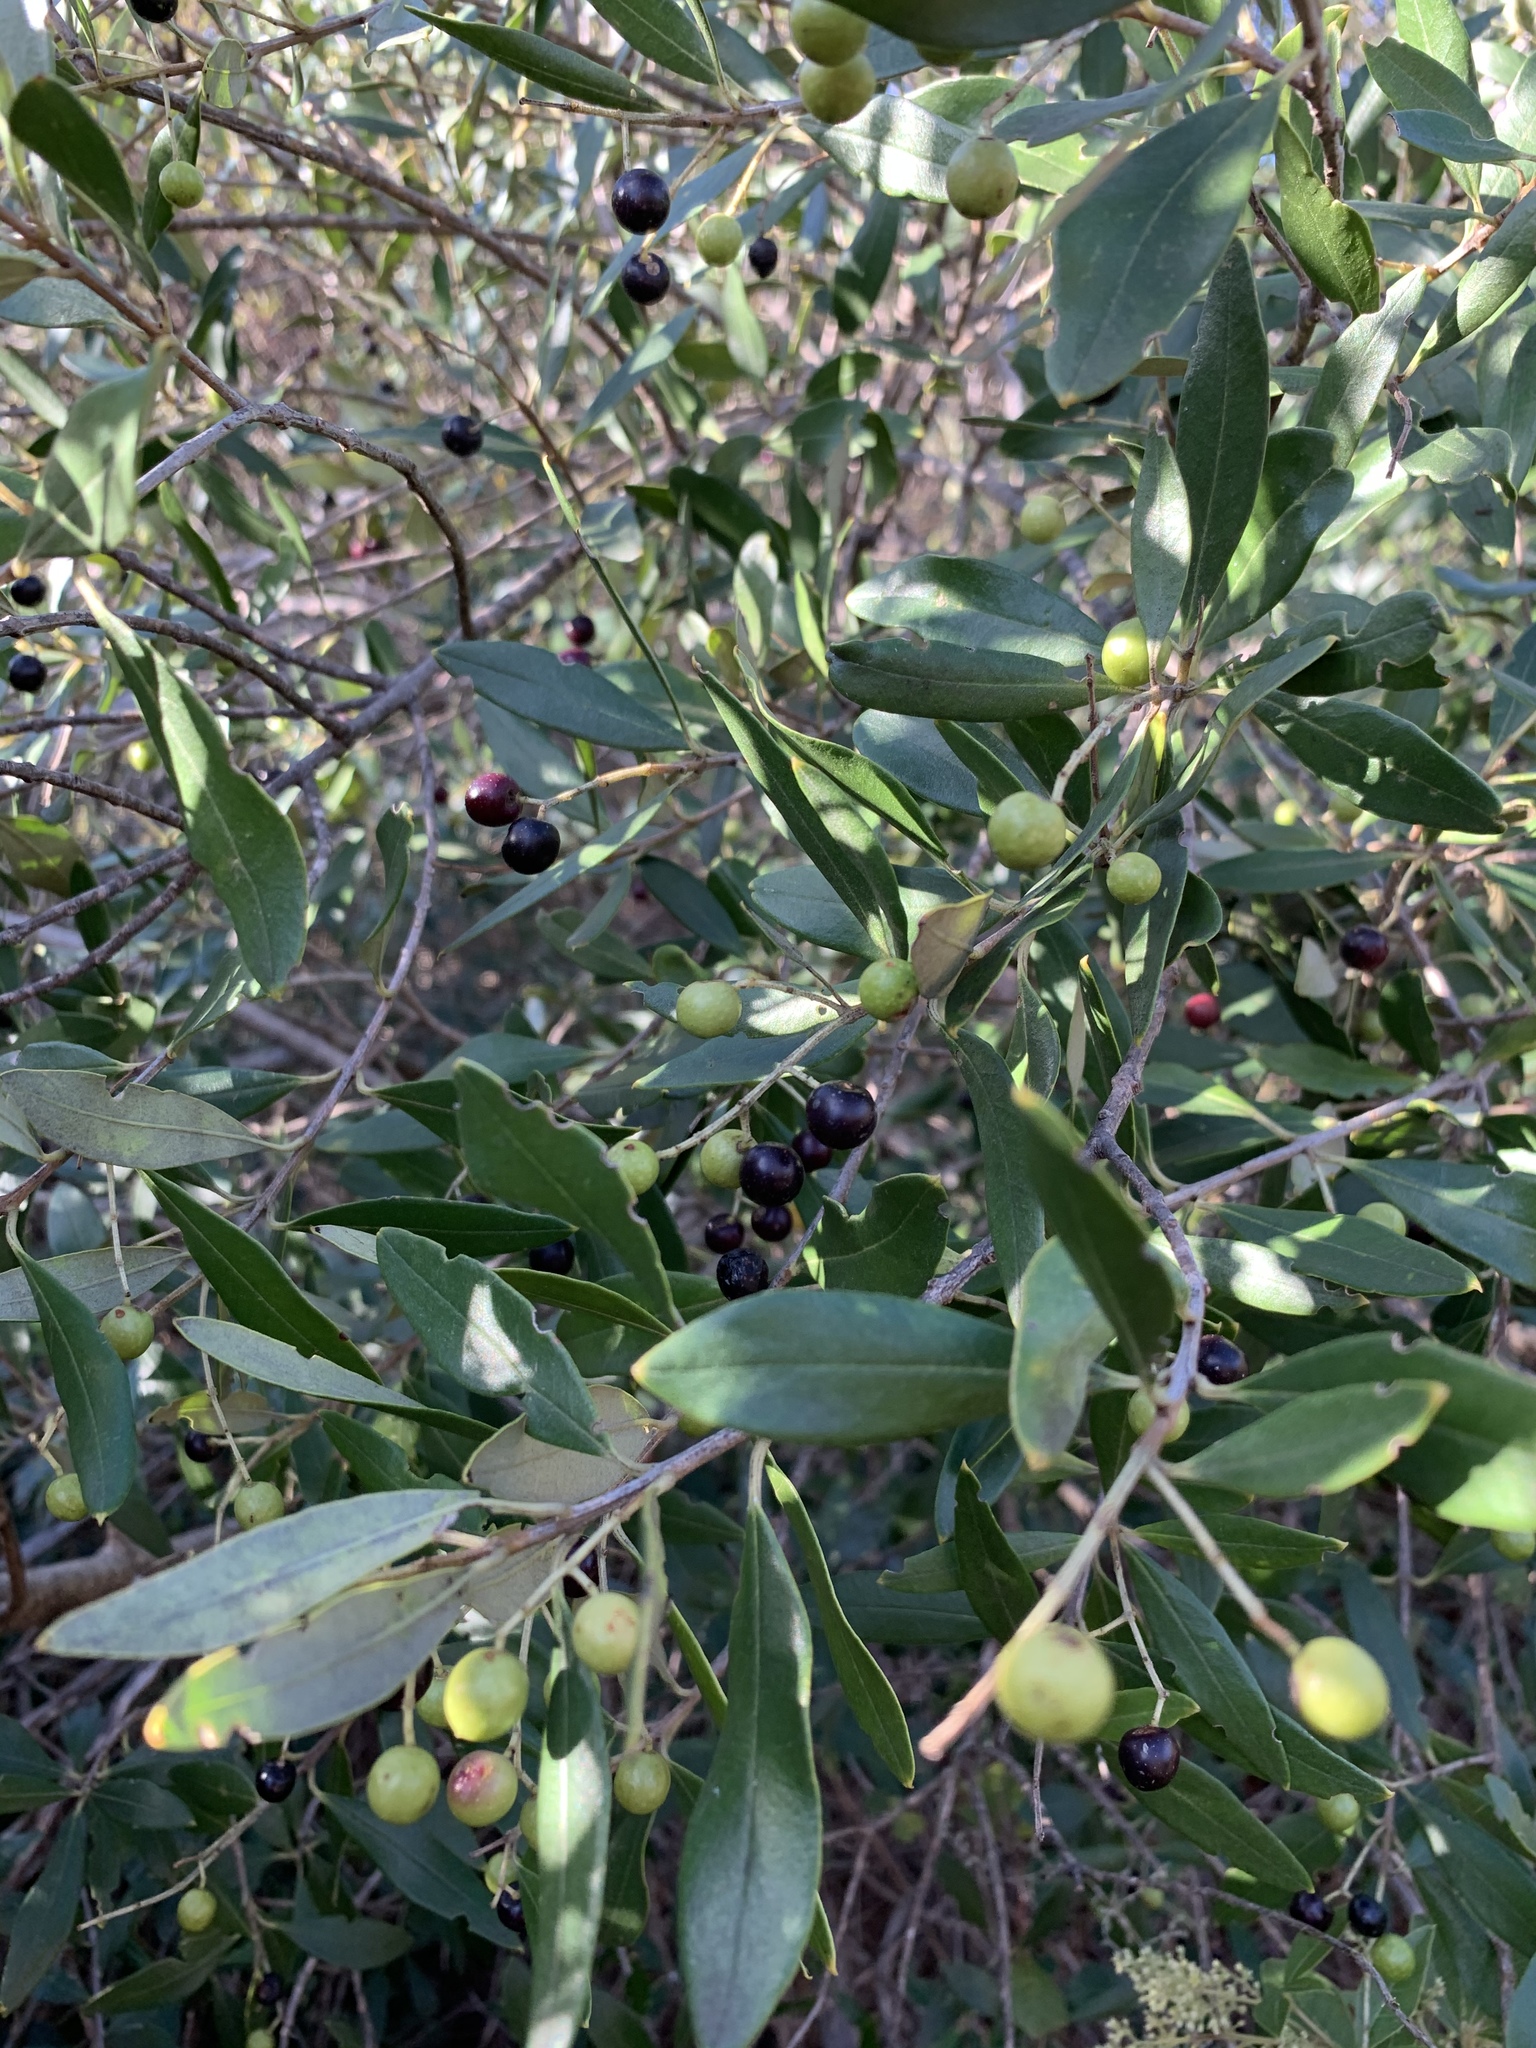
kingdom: Plantae
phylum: Tracheophyta
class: Magnoliopsida
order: Lamiales
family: Oleaceae
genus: Olea
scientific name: Olea europaea
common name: Olive
